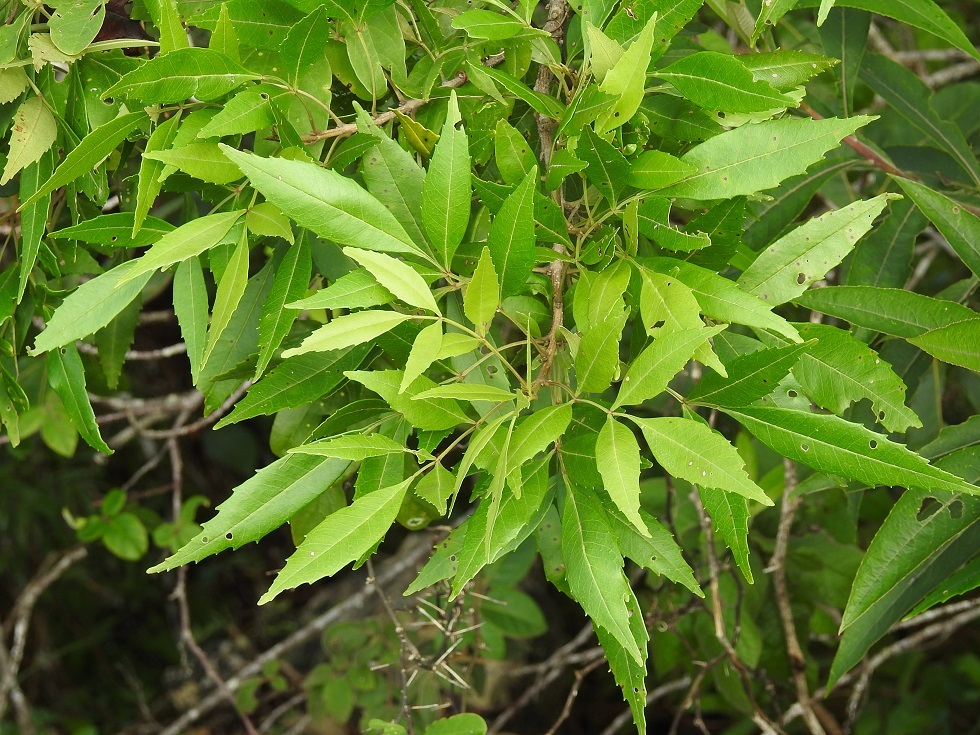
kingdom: Plantae
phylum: Tracheophyta
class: Magnoliopsida
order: Lamiales
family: Oleaceae
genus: Fraxinus
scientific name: Fraxinus purpusii
